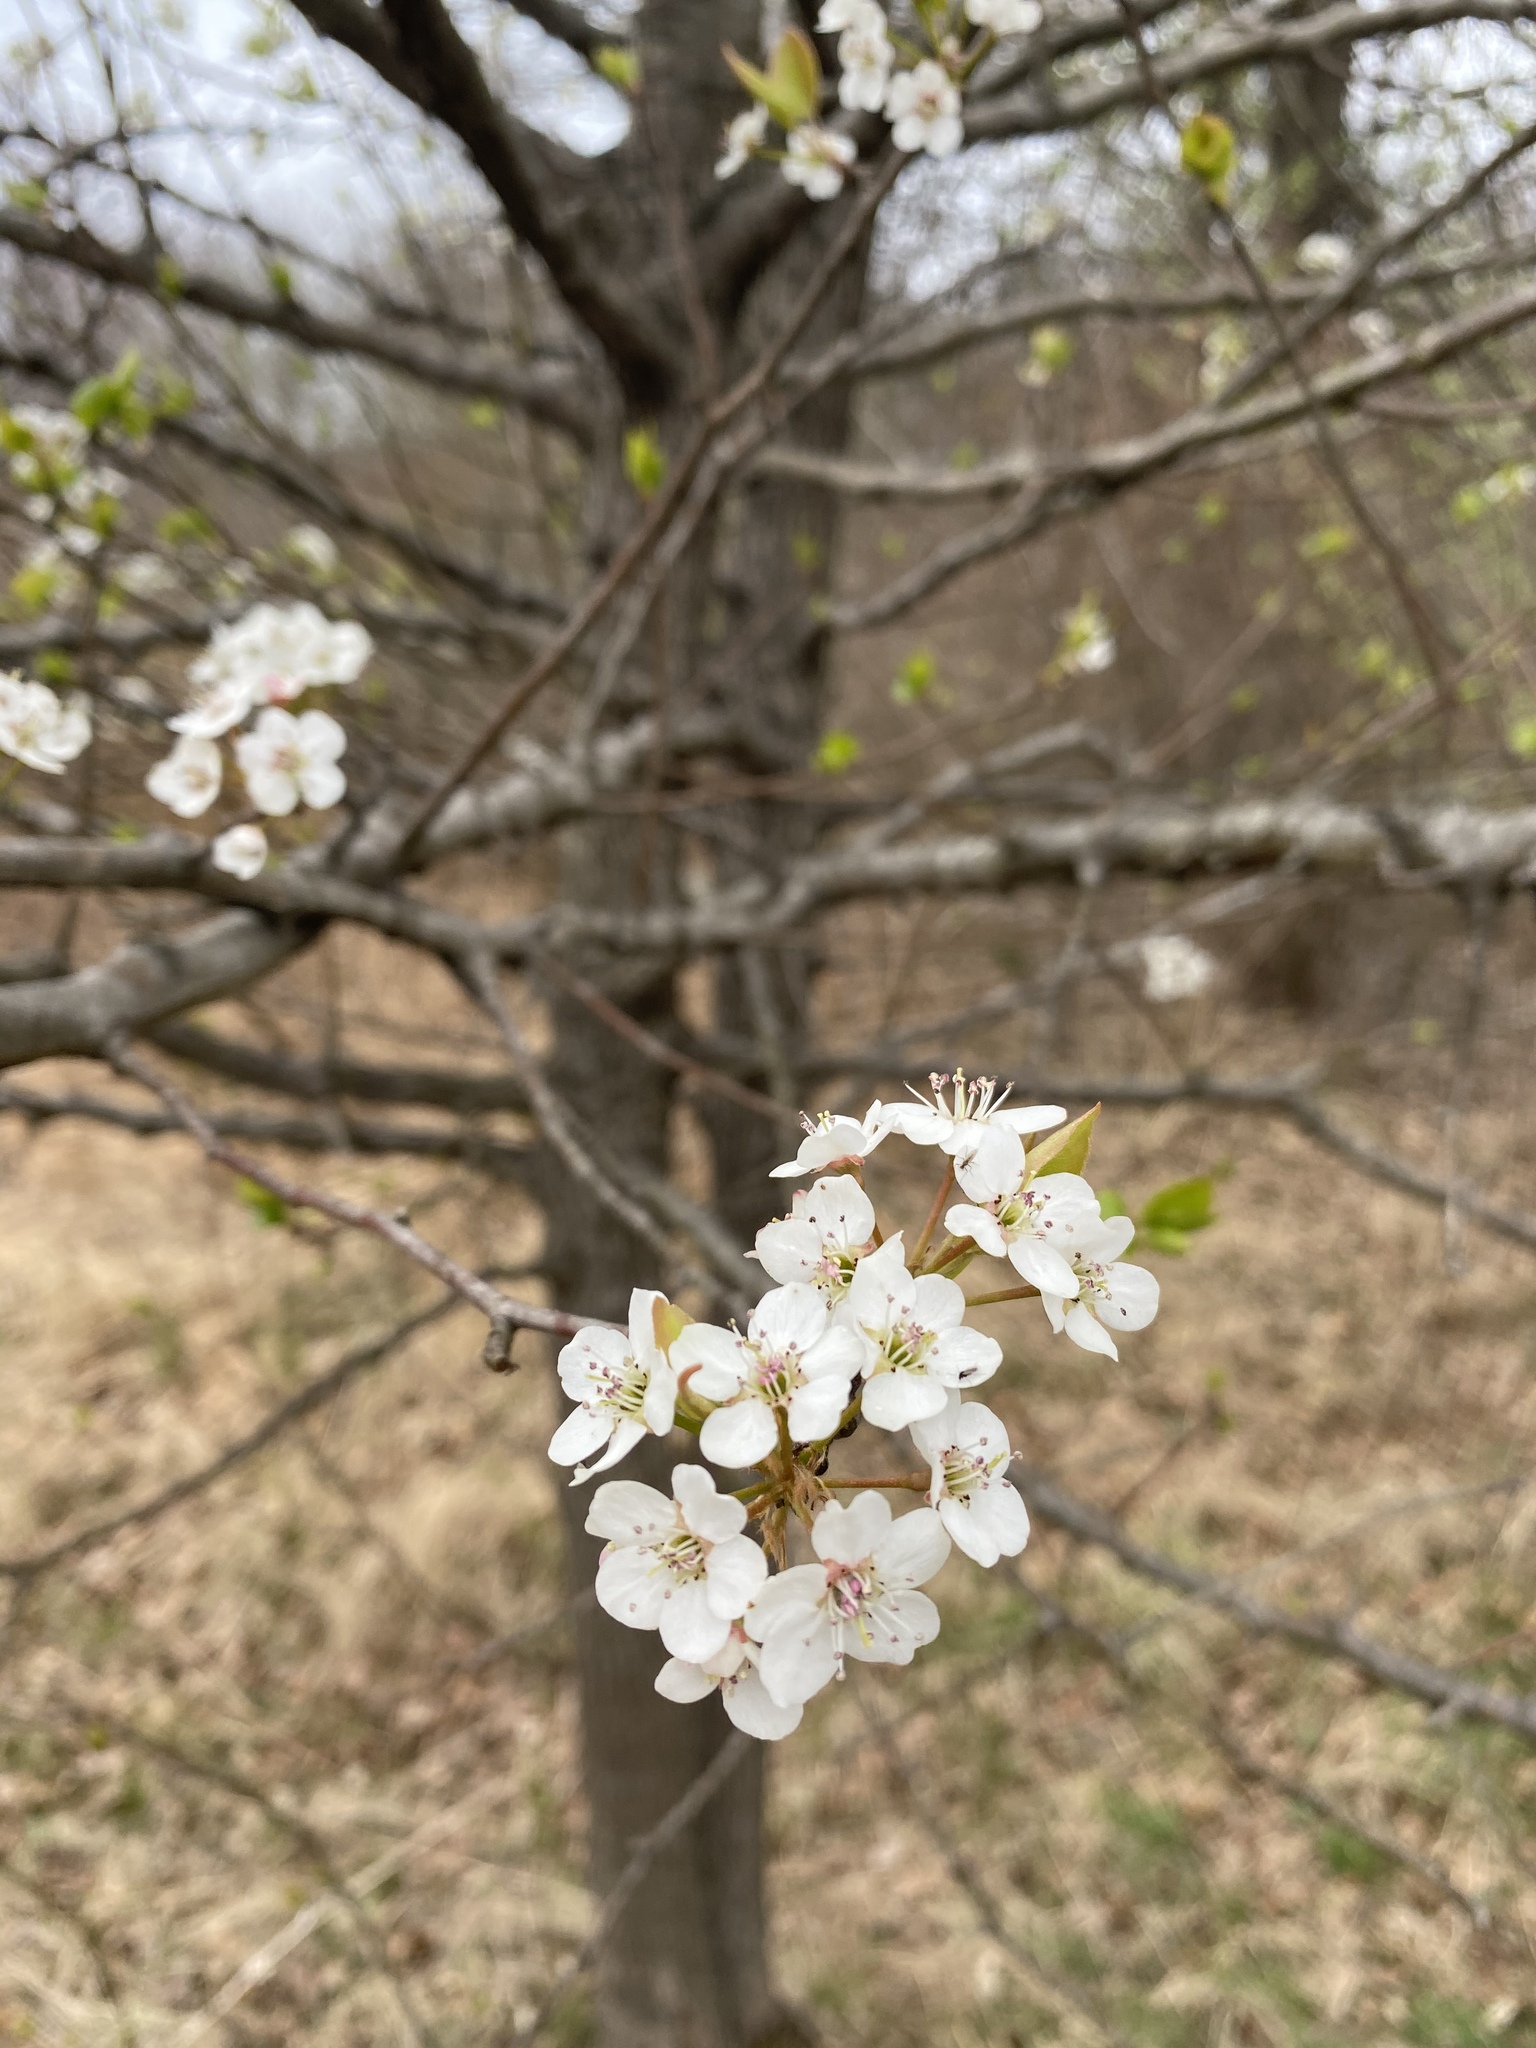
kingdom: Plantae
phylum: Tracheophyta
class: Magnoliopsida
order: Rosales
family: Rosaceae
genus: Pyrus
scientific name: Pyrus calleryana
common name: Callery pear
